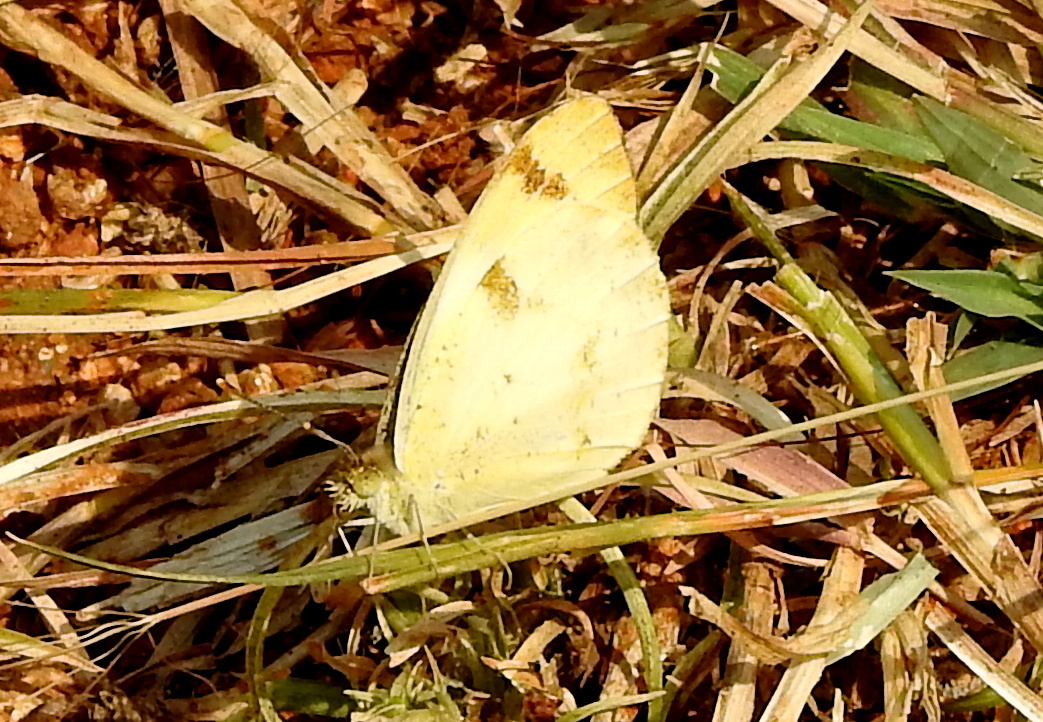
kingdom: Animalia
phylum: Arthropoda
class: Insecta
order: Lepidoptera
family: Pieridae
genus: Colotis
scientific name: Colotis aurora
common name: Plain orange-tip
